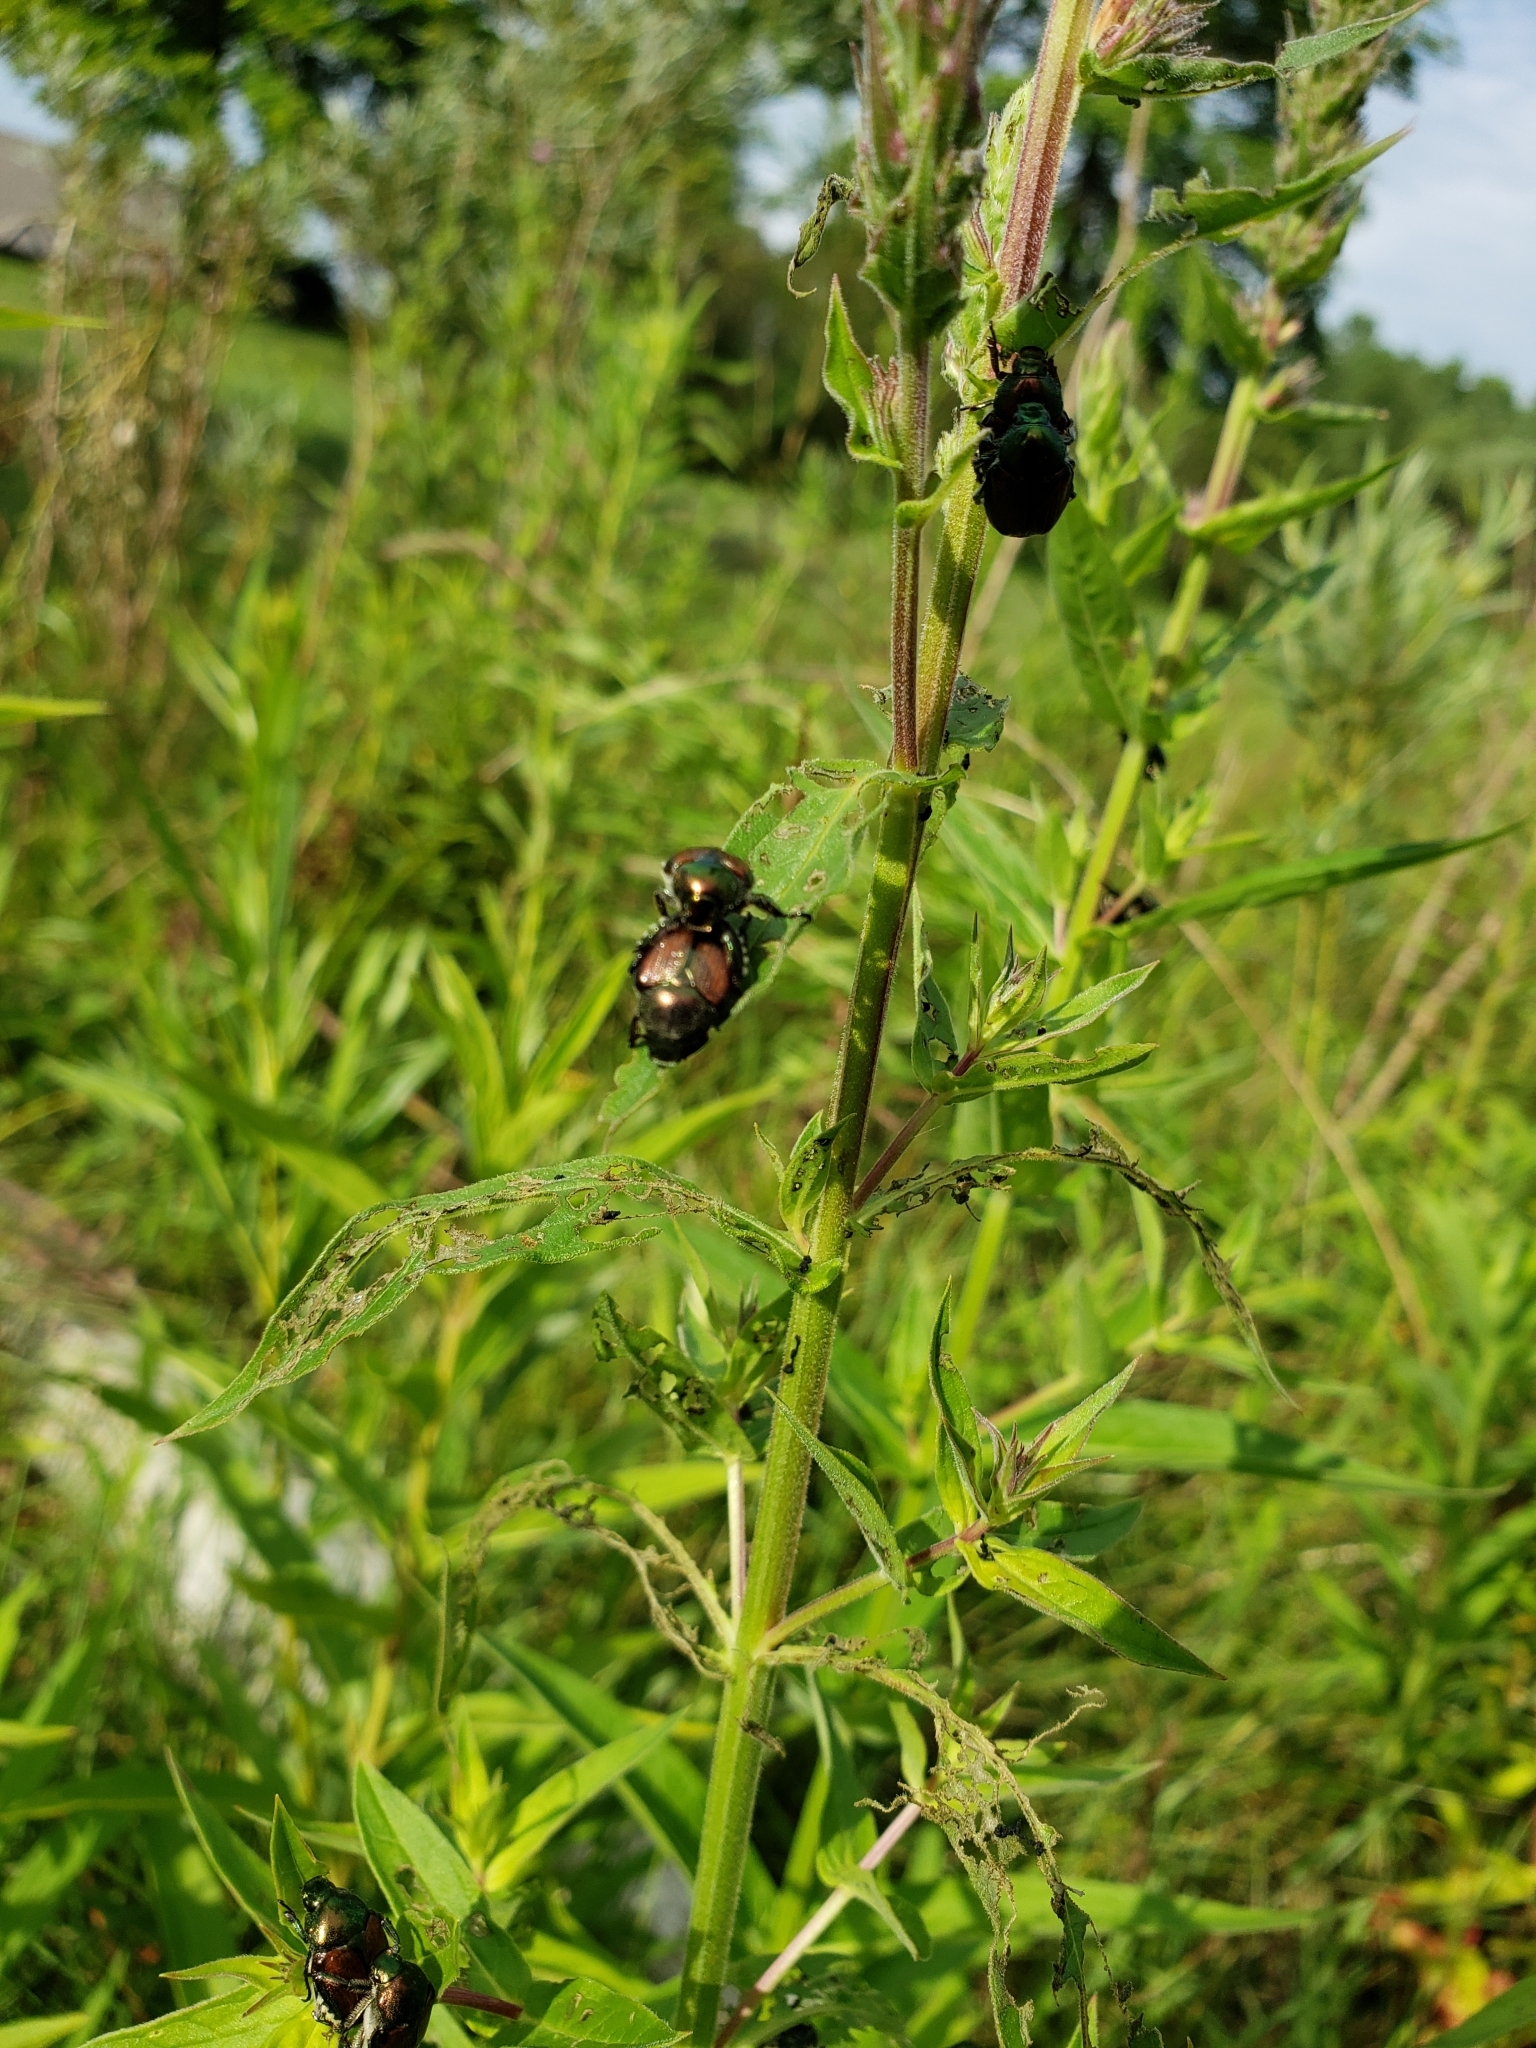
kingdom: Animalia
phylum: Arthropoda
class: Insecta
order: Coleoptera
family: Scarabaeidae
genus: Popillia
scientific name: Popillia japonica
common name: Japanese beetle
